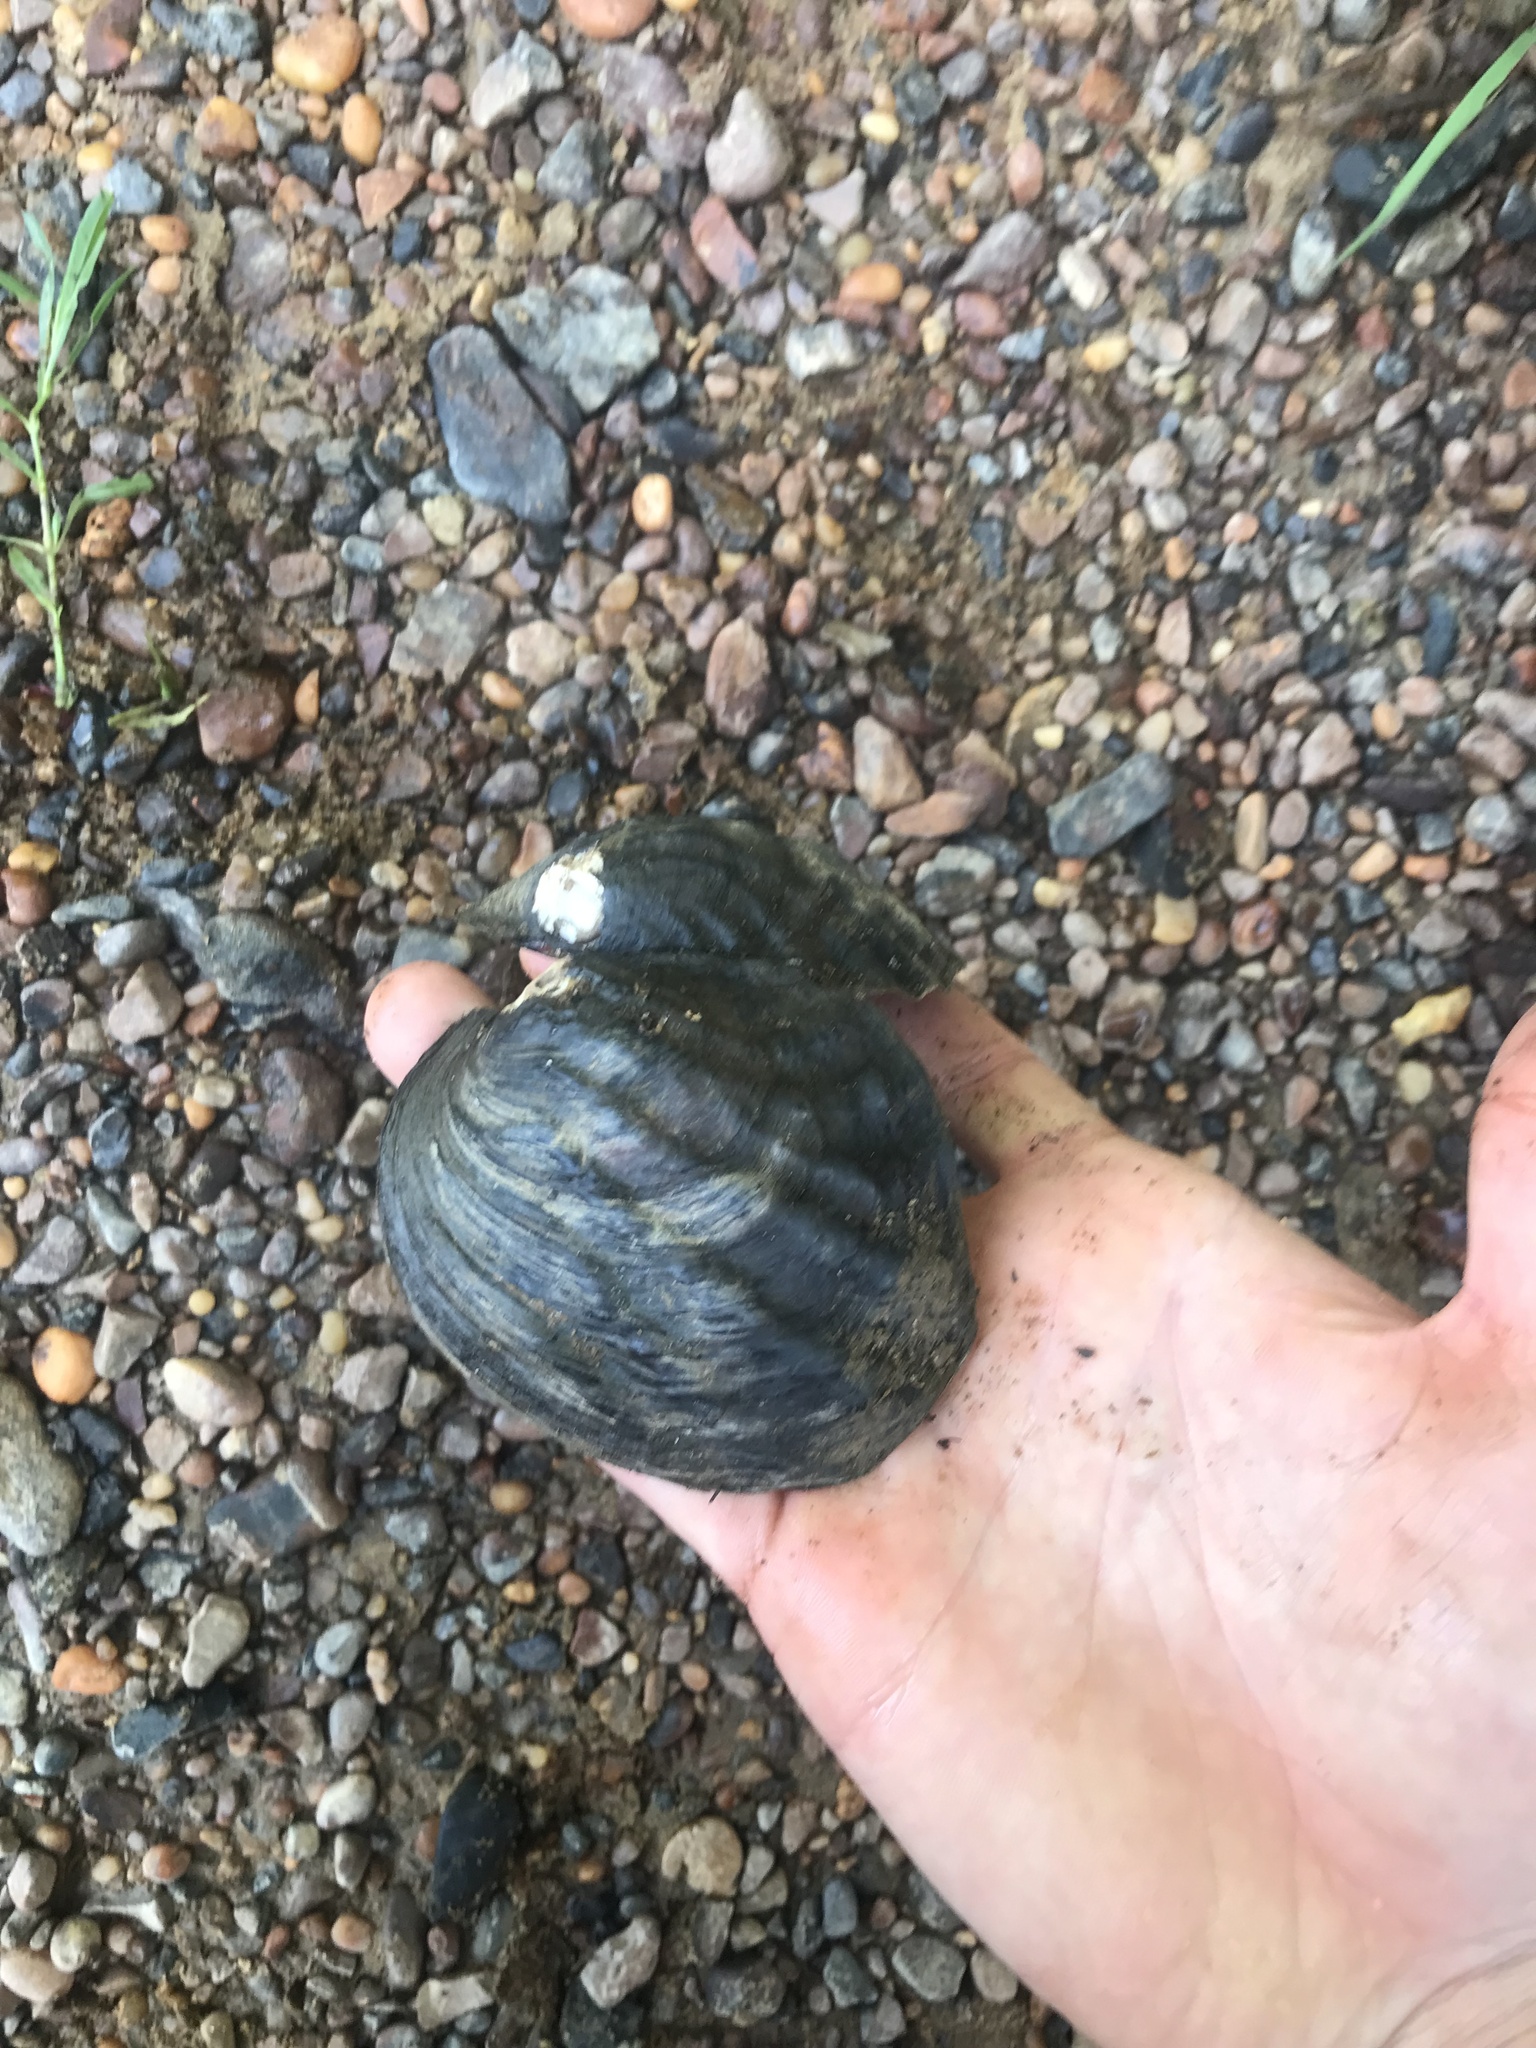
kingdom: Animalia
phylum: Mollusca
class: Bivalvia
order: Unionida
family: Unionidae
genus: Amblema
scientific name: Amblema plicata
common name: Threeridge
